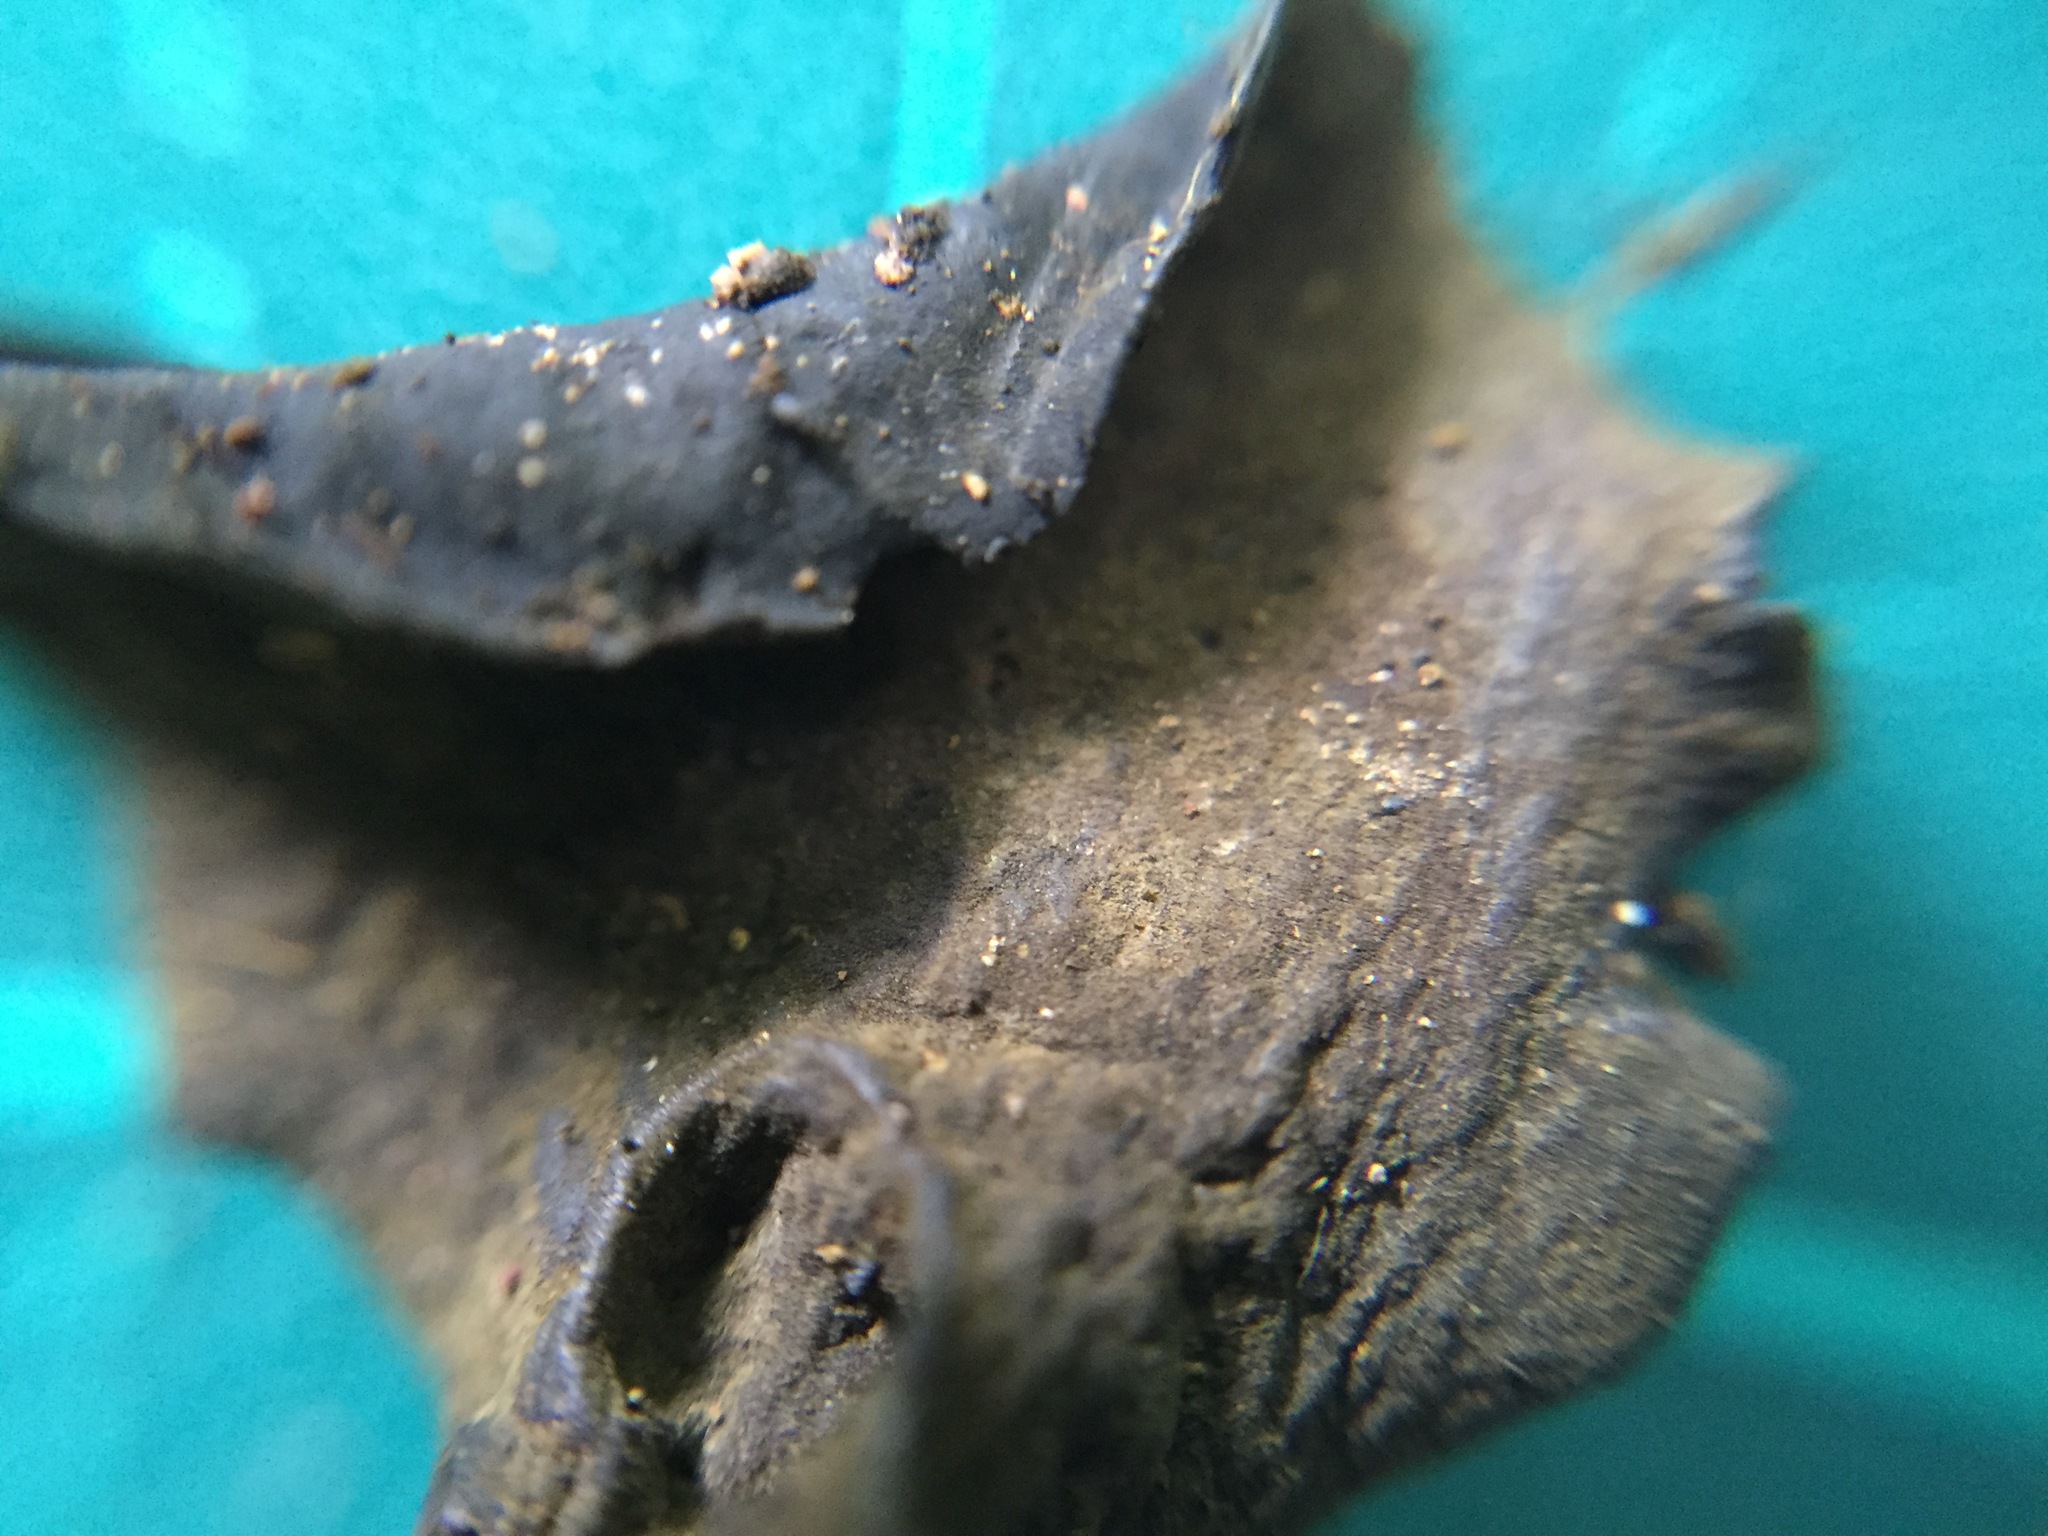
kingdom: Fungi
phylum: Ascomycota
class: Leotiomycetes
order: Helotiales
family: Cordieritidaceae
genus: Cordierites
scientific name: Cordierites frondosus
